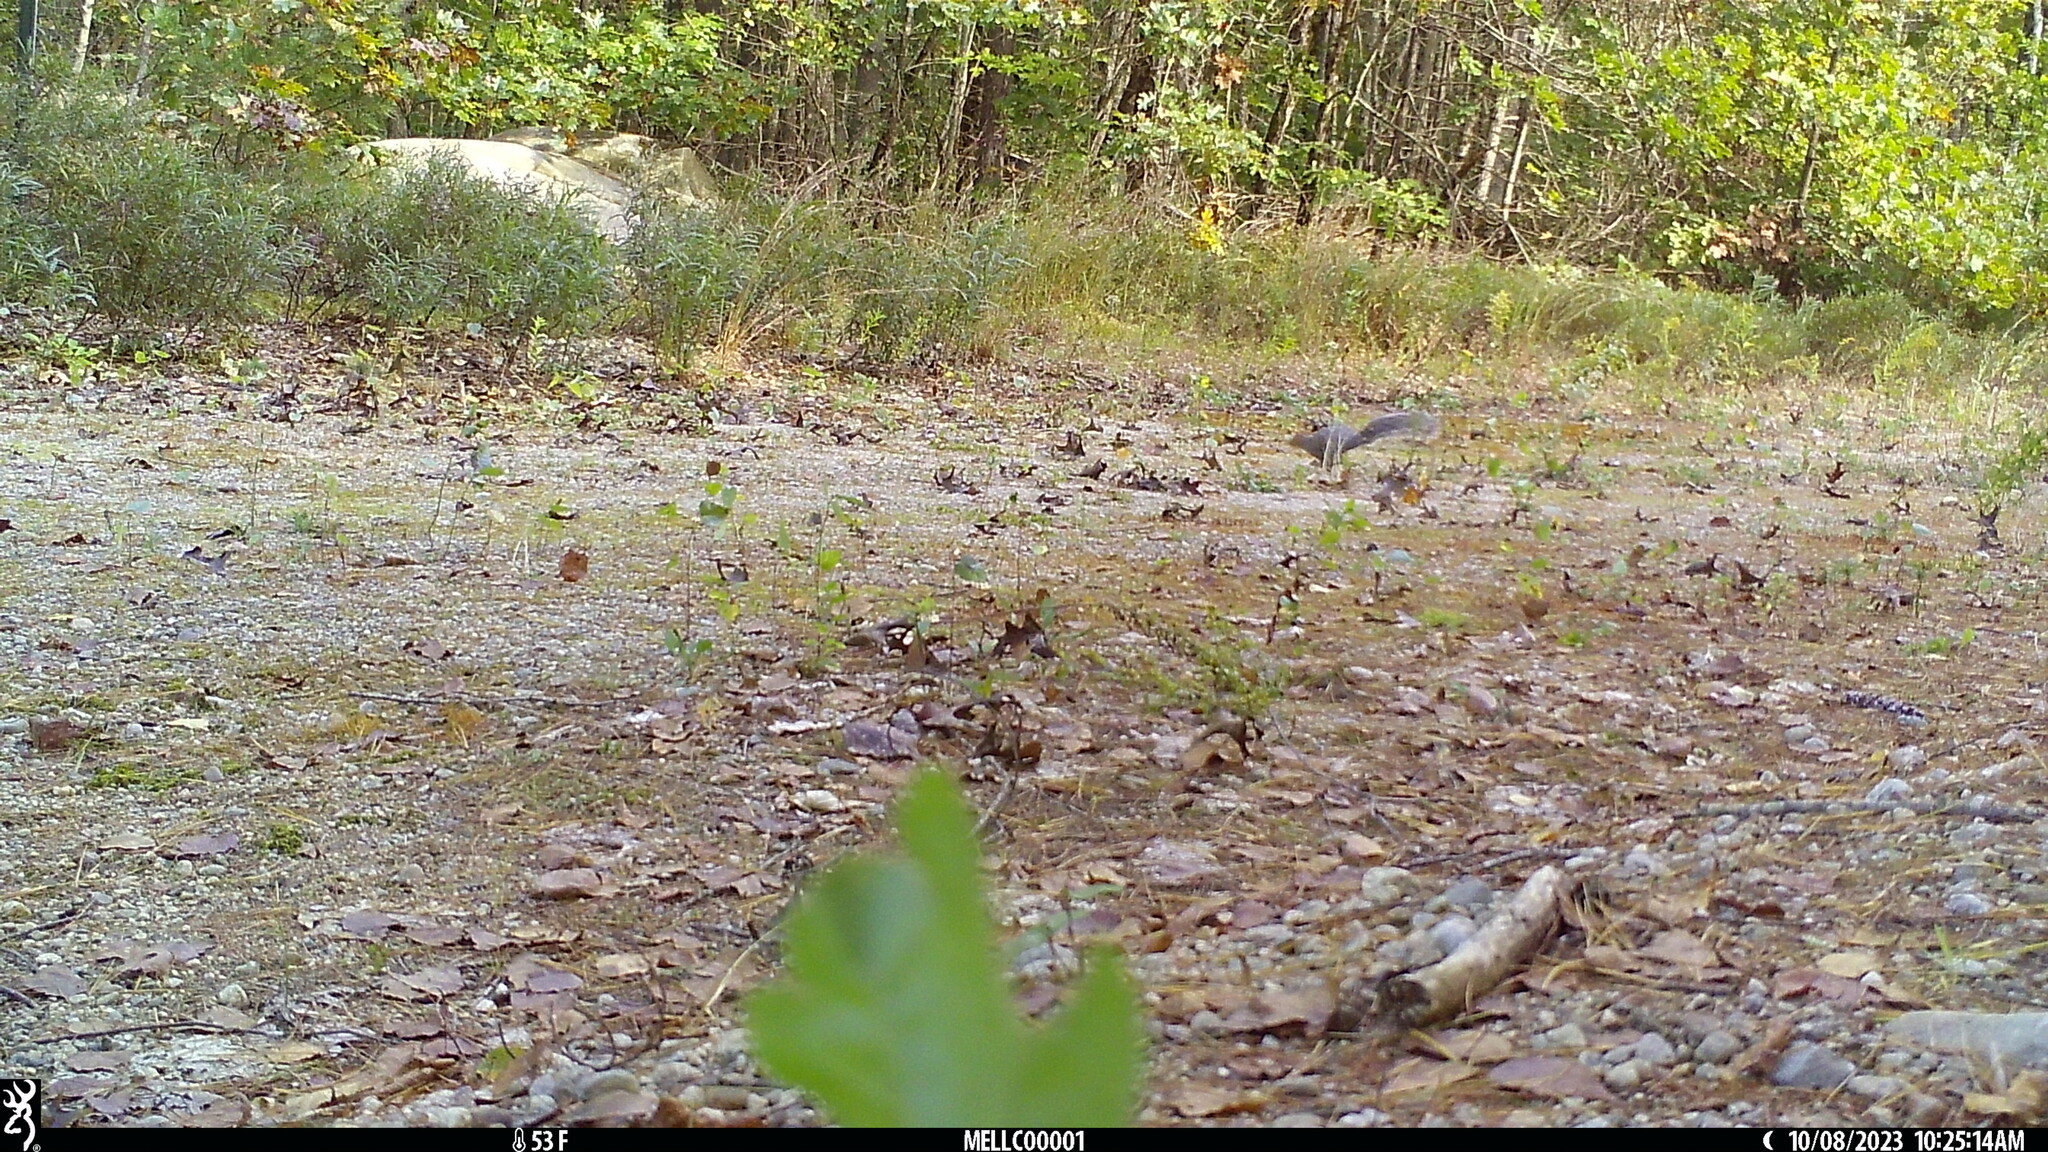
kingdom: Animalia
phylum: Chordata
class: Mammalia
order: Rodentia
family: Sciuridae
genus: Sciurus
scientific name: Sciurus carolinensis
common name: Eastern gray squirrel
